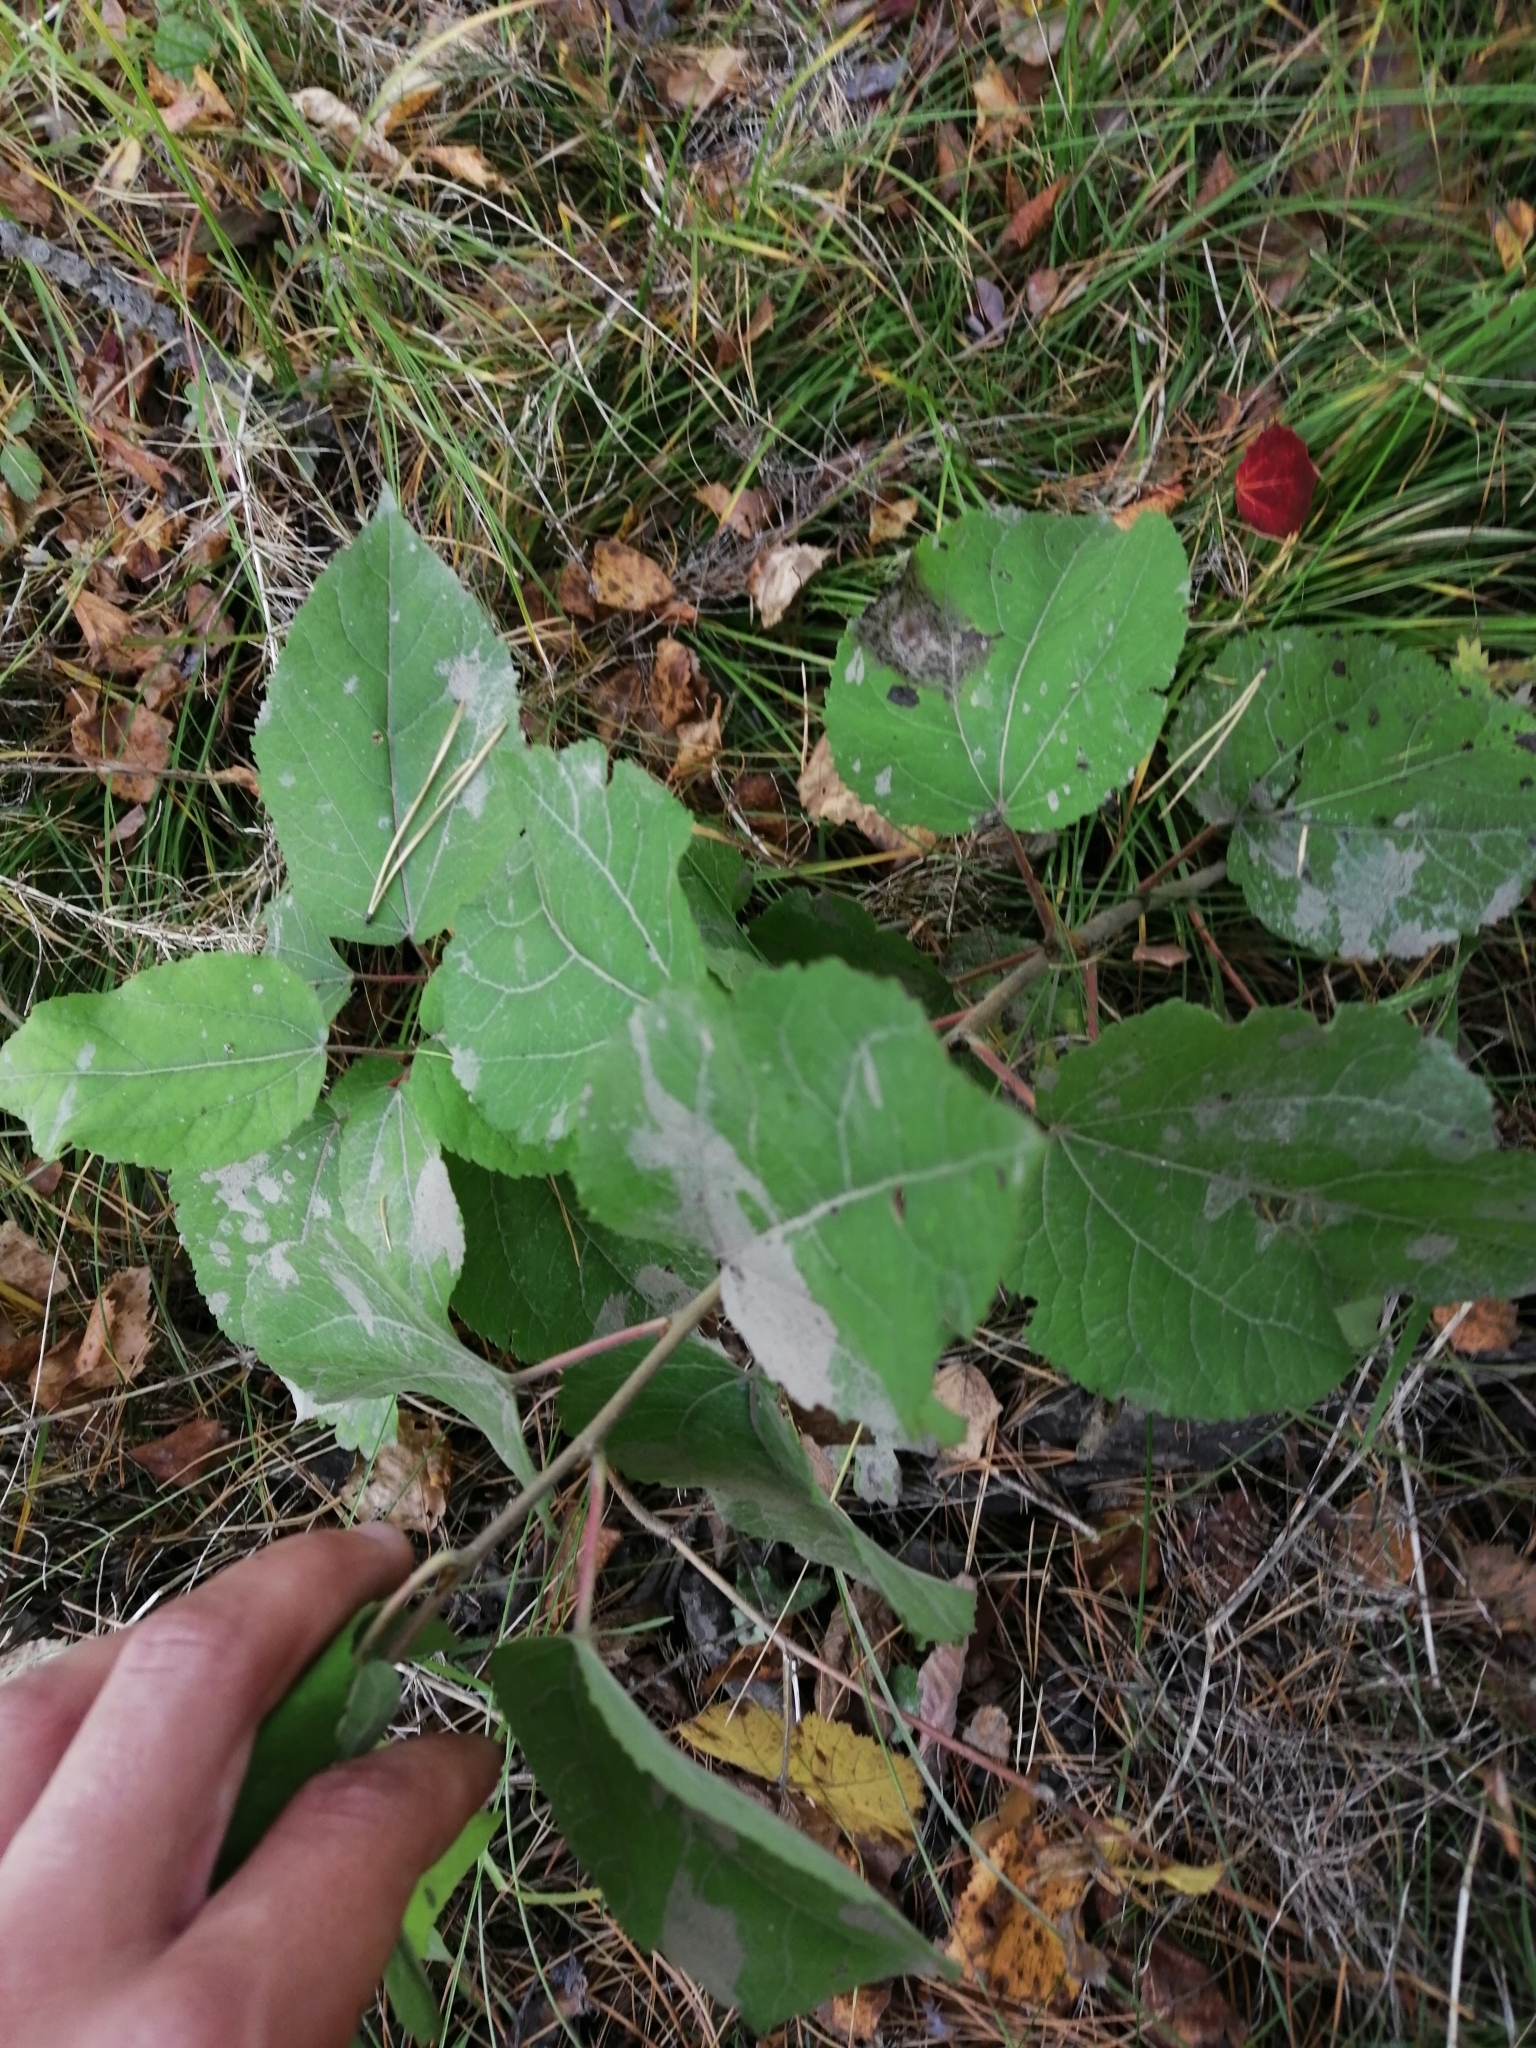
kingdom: Plantae
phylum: Tracheophyta
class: Magnoliopsida
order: Malpighiales
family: Salicaceae
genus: Populus
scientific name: Populus tremula
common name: European aspen
